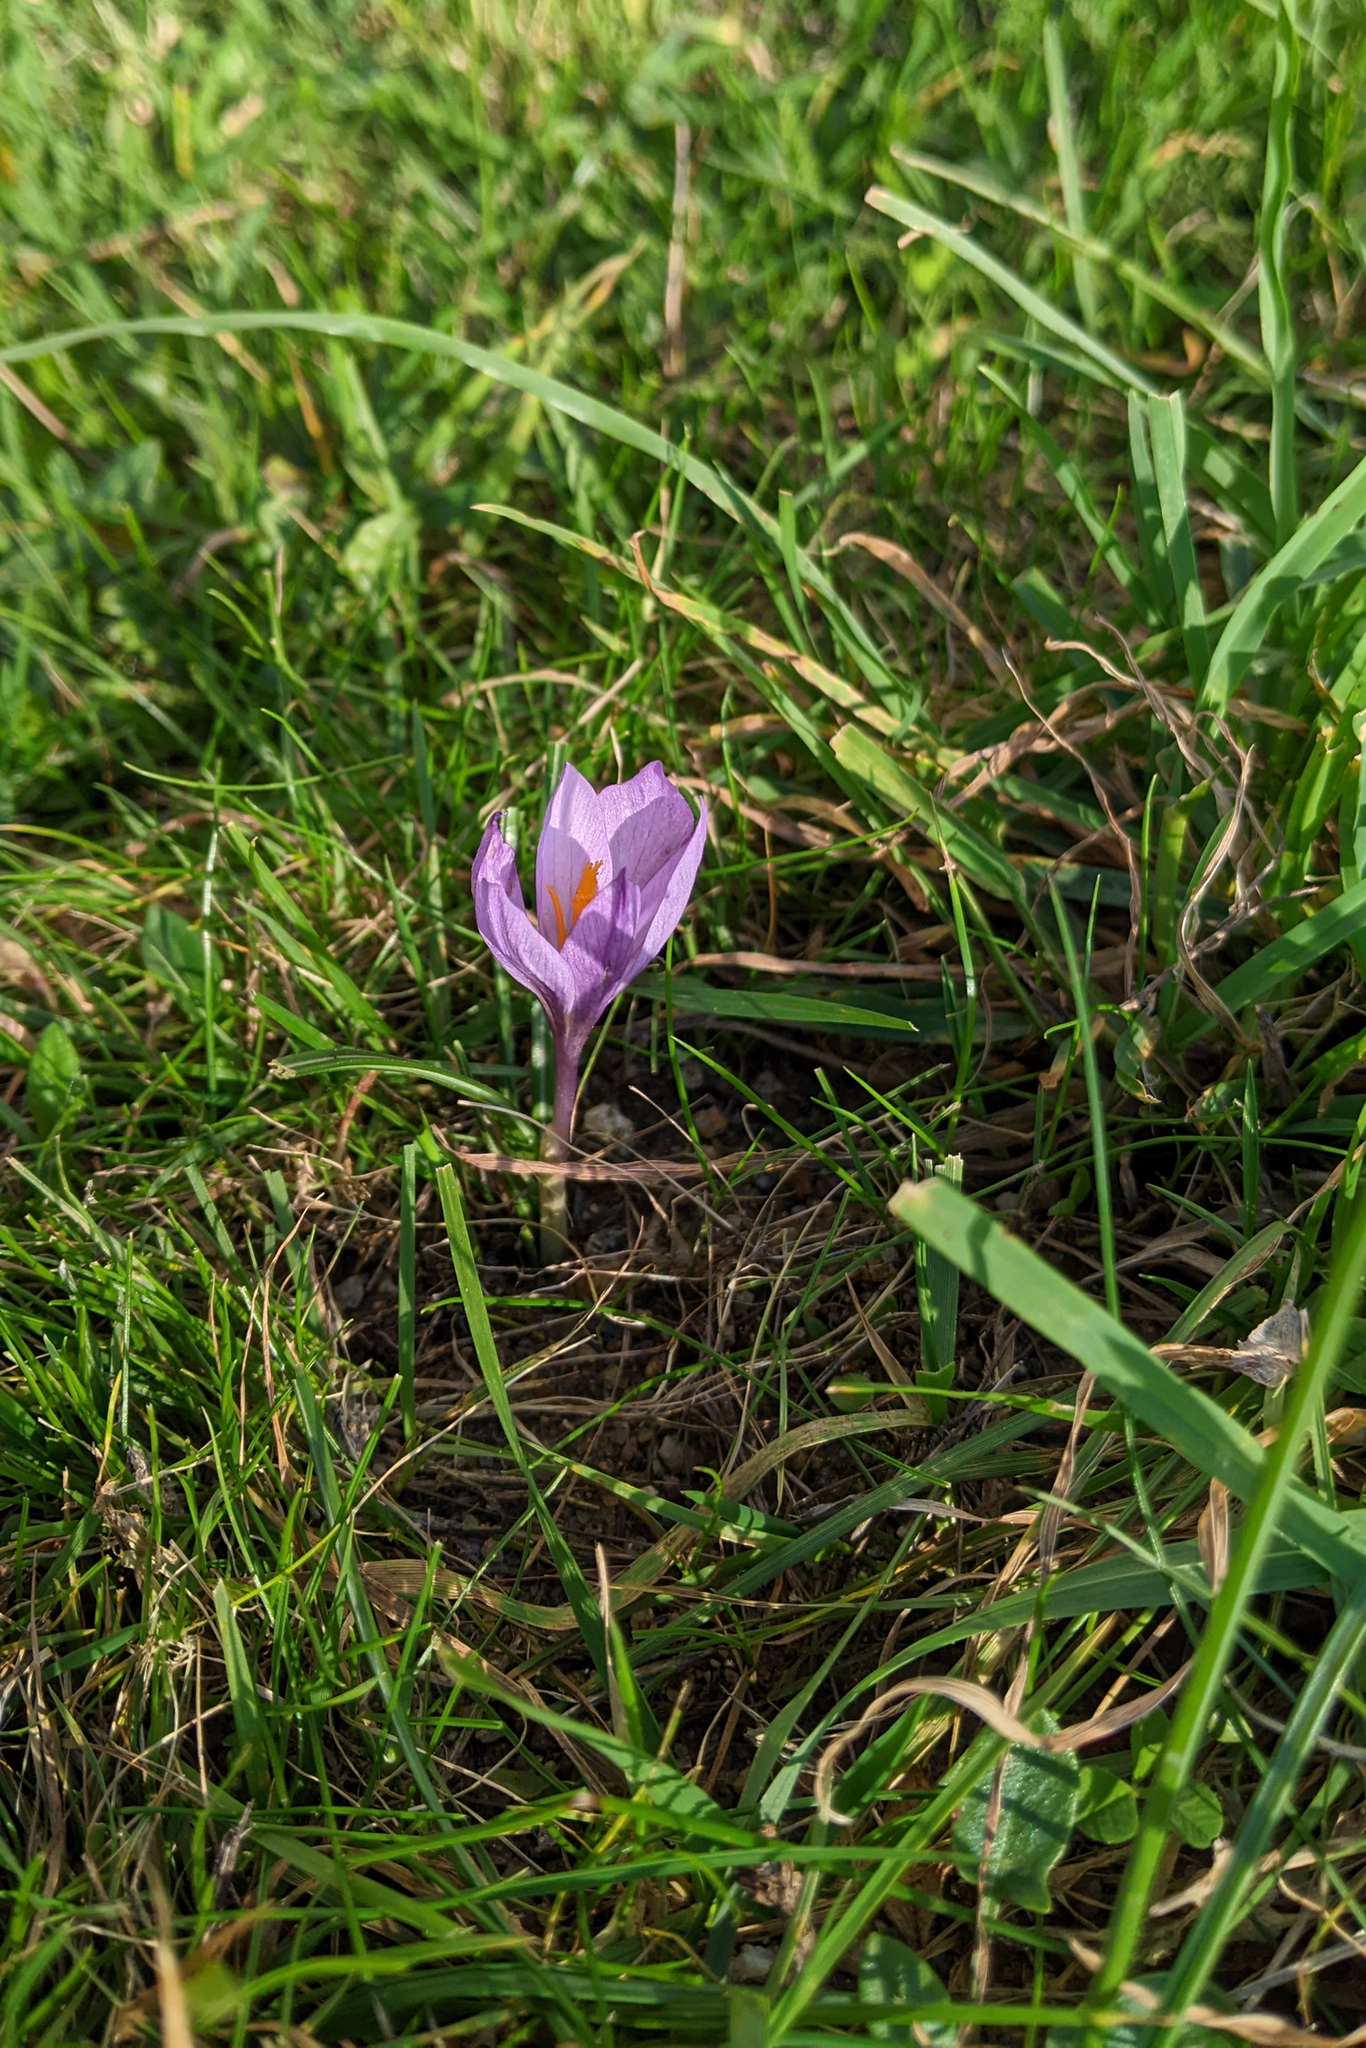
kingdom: Plantae
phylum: Tracheophyta
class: Liliopsida
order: Asparagales
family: Iridaceae
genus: Crocus
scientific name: Crocus autumnalis
